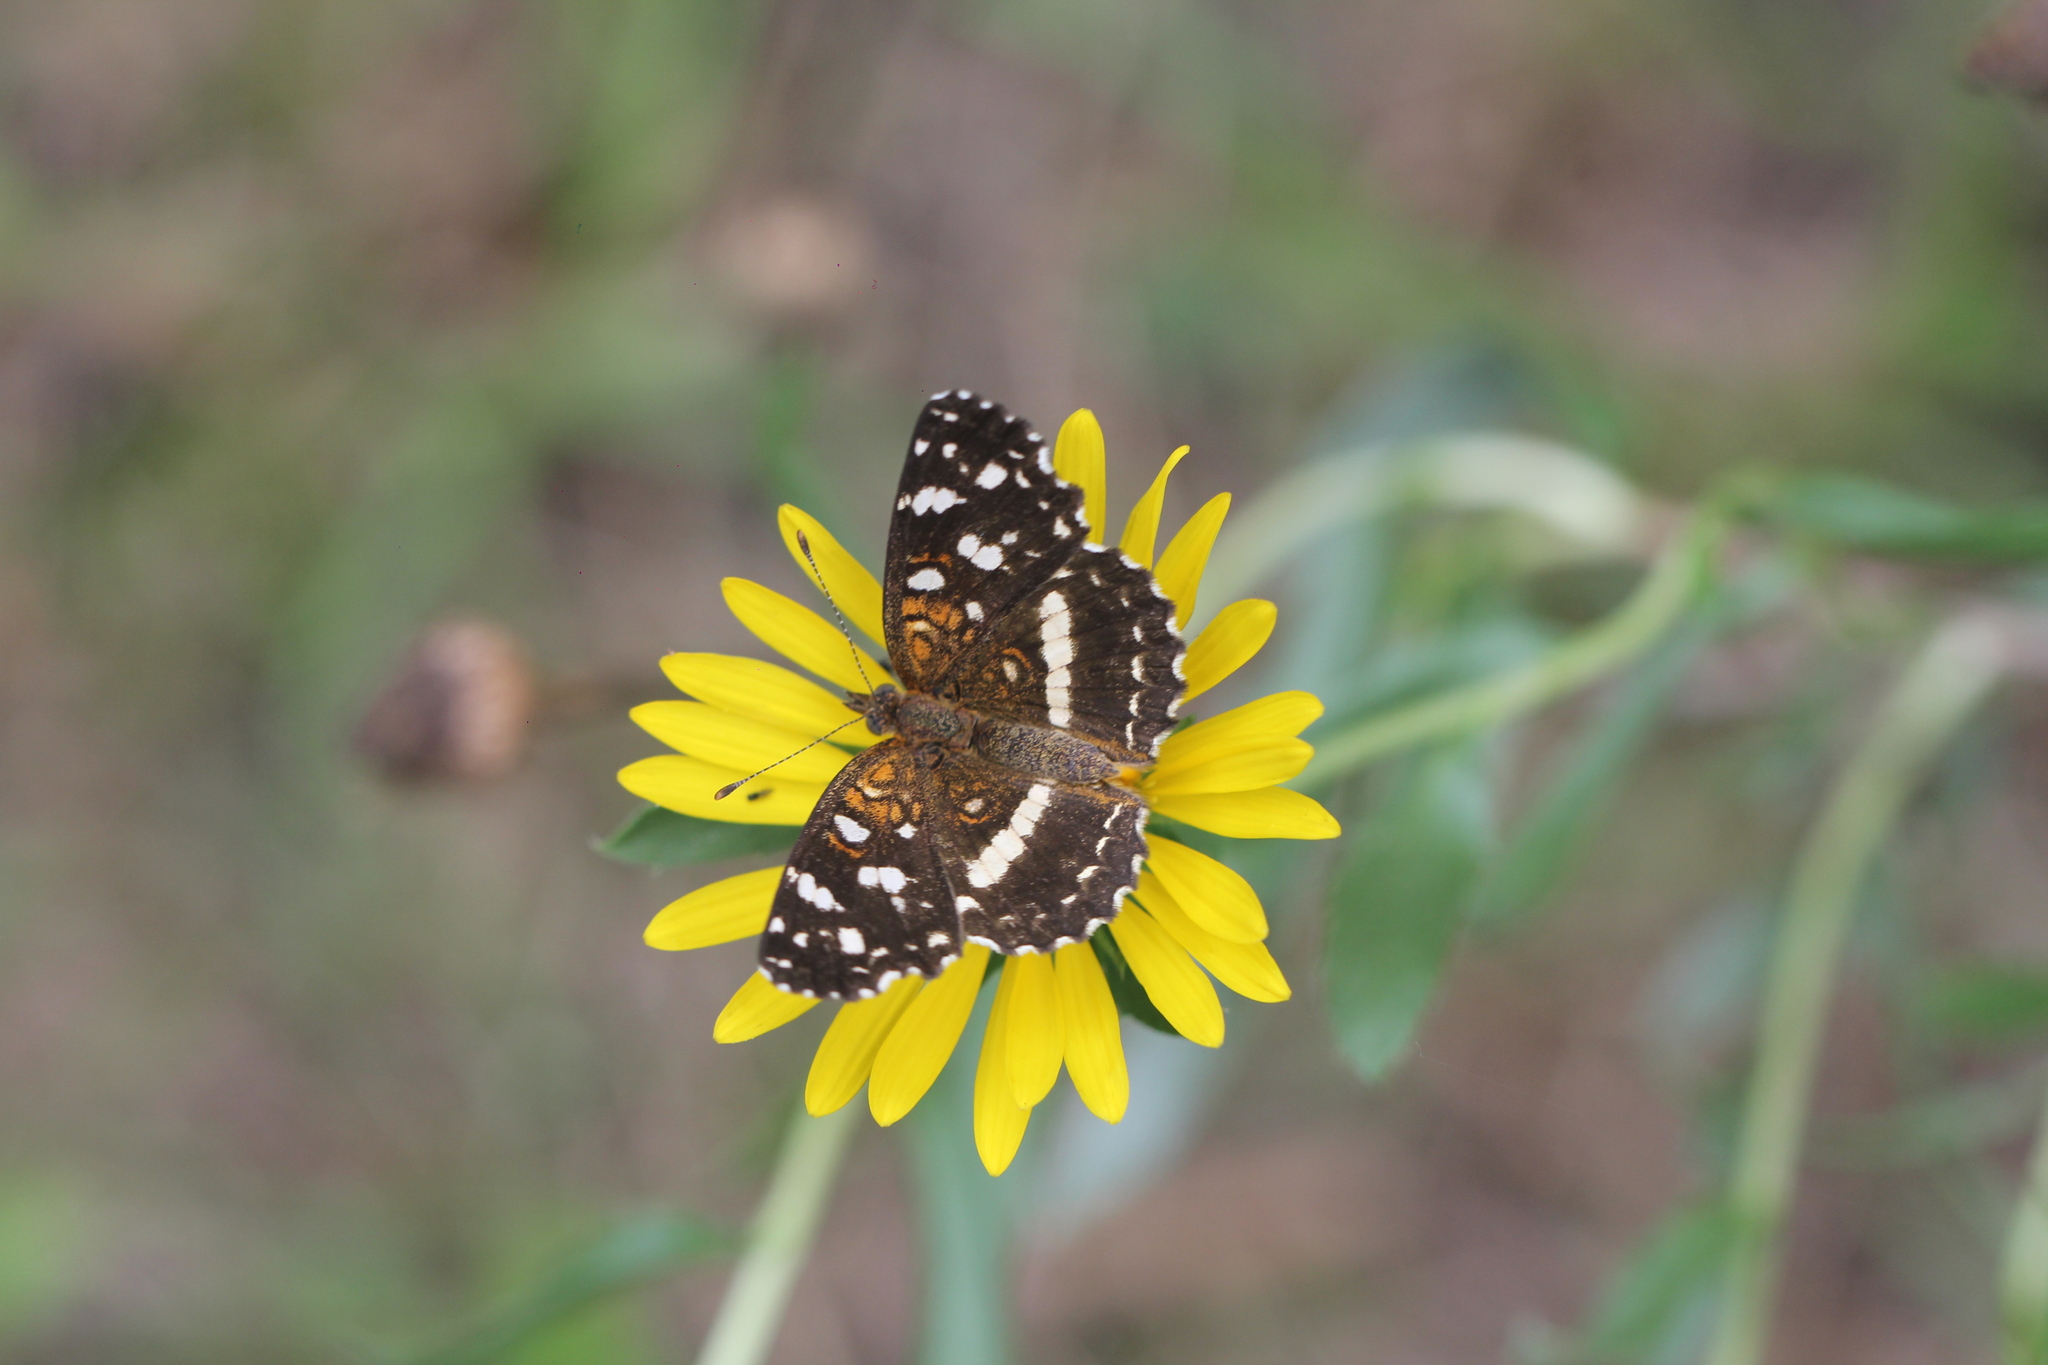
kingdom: Animalia
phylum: Arthropoda
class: Insecta
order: Lepidoptera
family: Nymphalidae
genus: Ortilia
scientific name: Ortilia ithra
